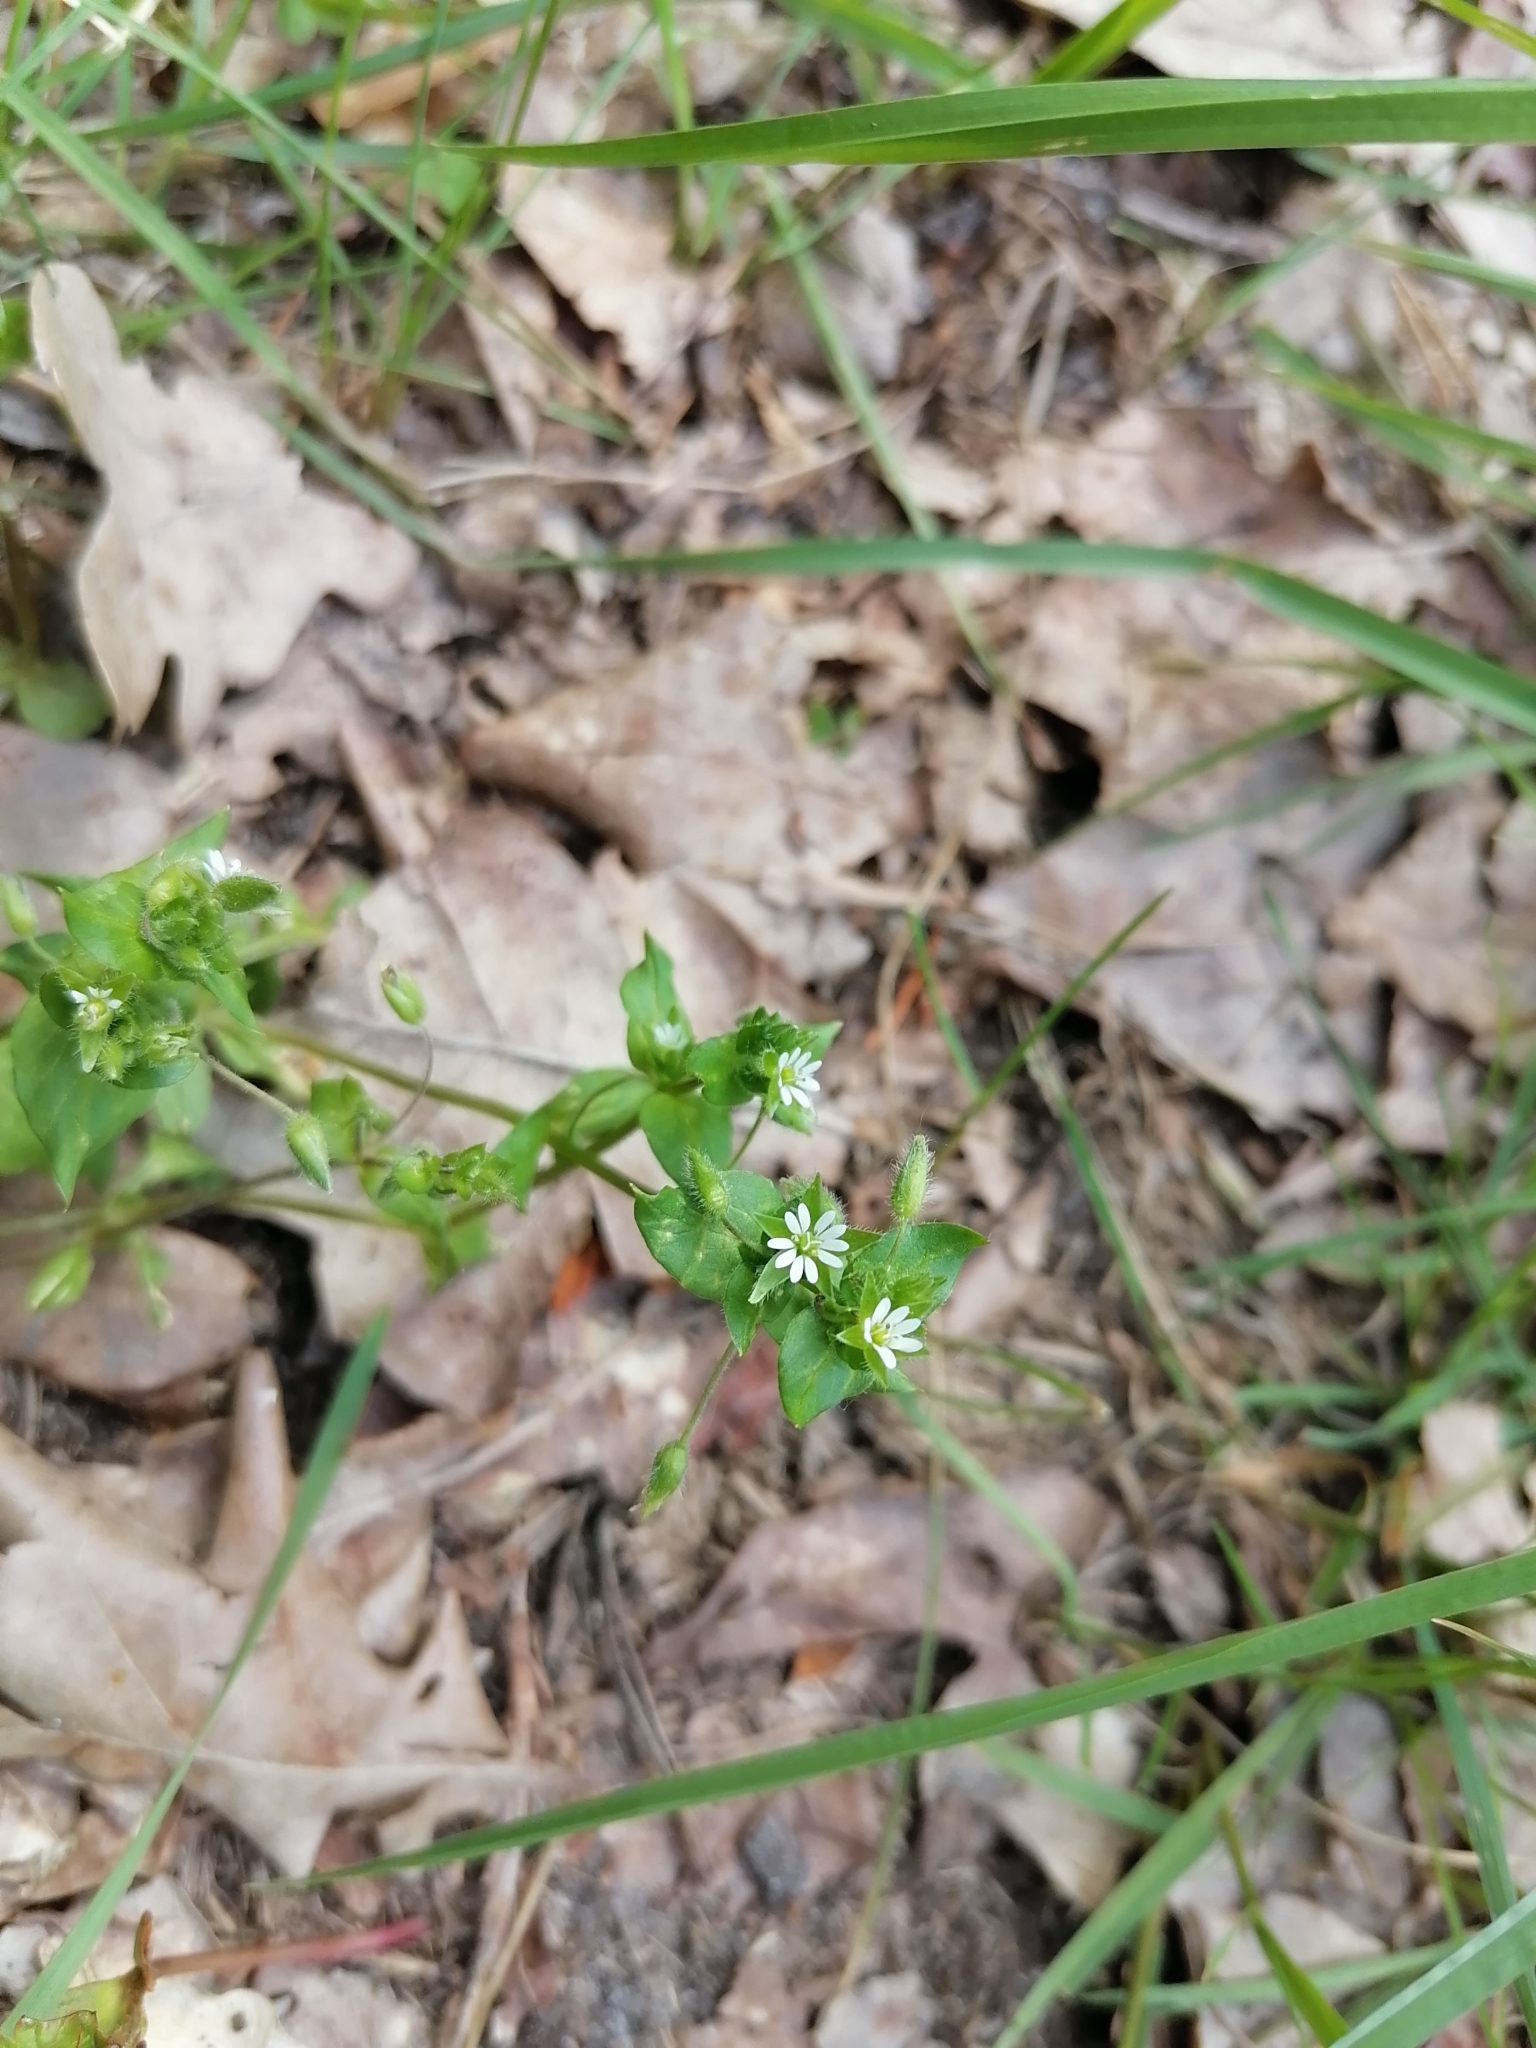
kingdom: Plantae
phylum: Tracheophyta
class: Magnoliopsida
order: Caryophyllales
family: Caryophyllaceae
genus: Stellaria
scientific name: Stellaria media
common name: Common chickweed
